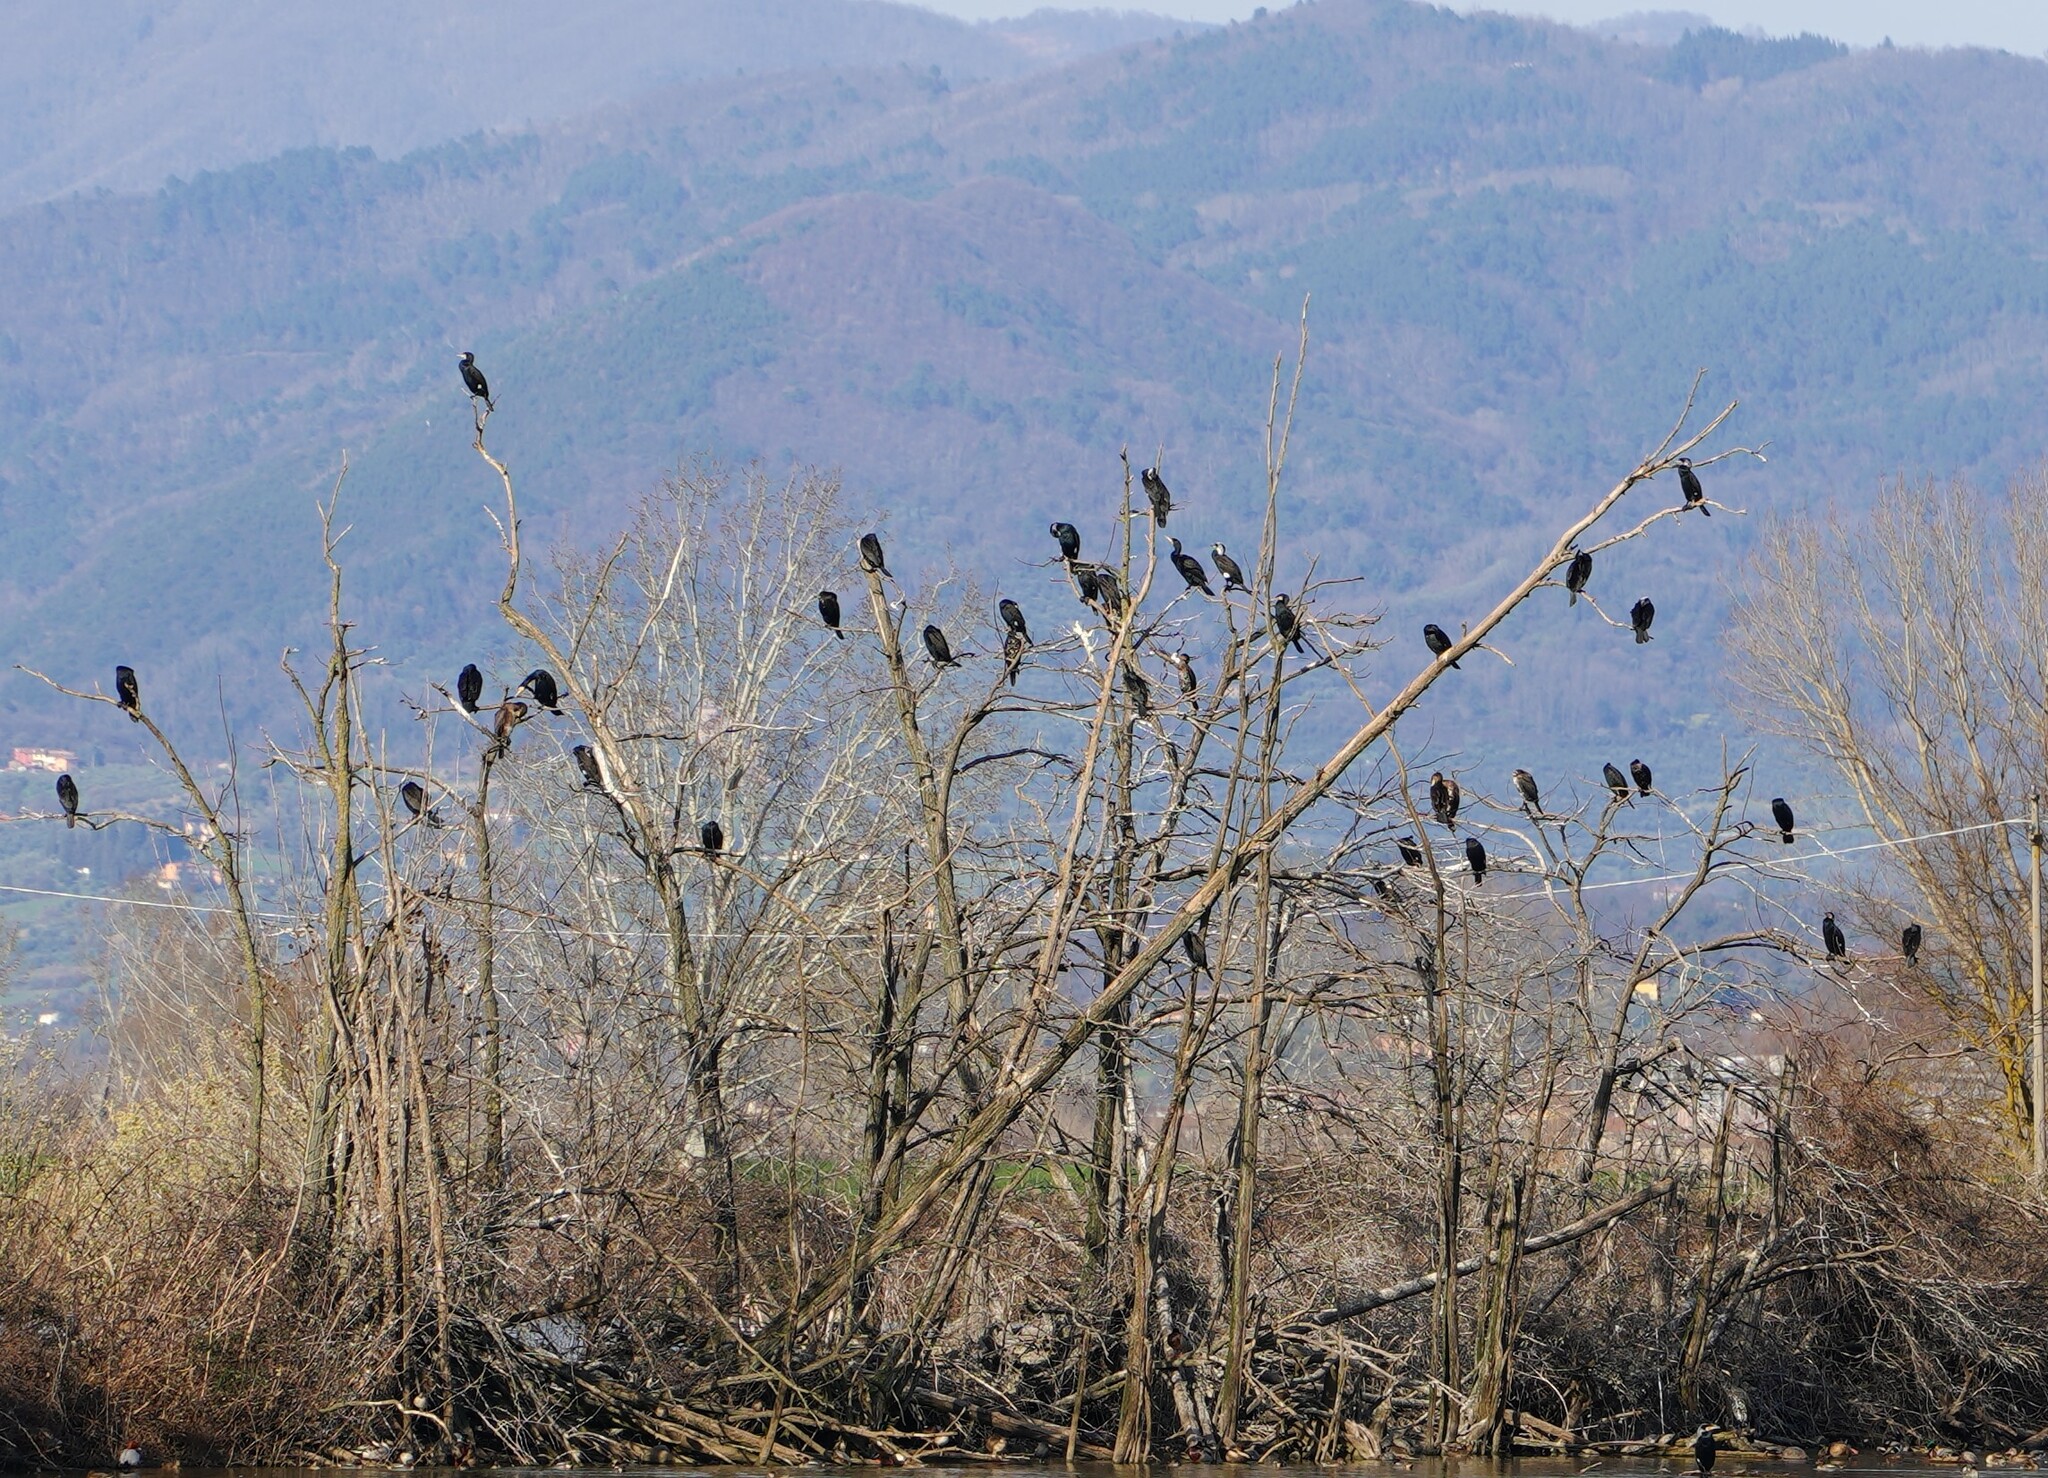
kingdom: Animalia
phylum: Chordata
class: Aves
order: Suliformes
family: Phalacrocoracidae
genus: Phalacrocorax
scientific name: Phalacrocorax carbo
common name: Great cormorant
